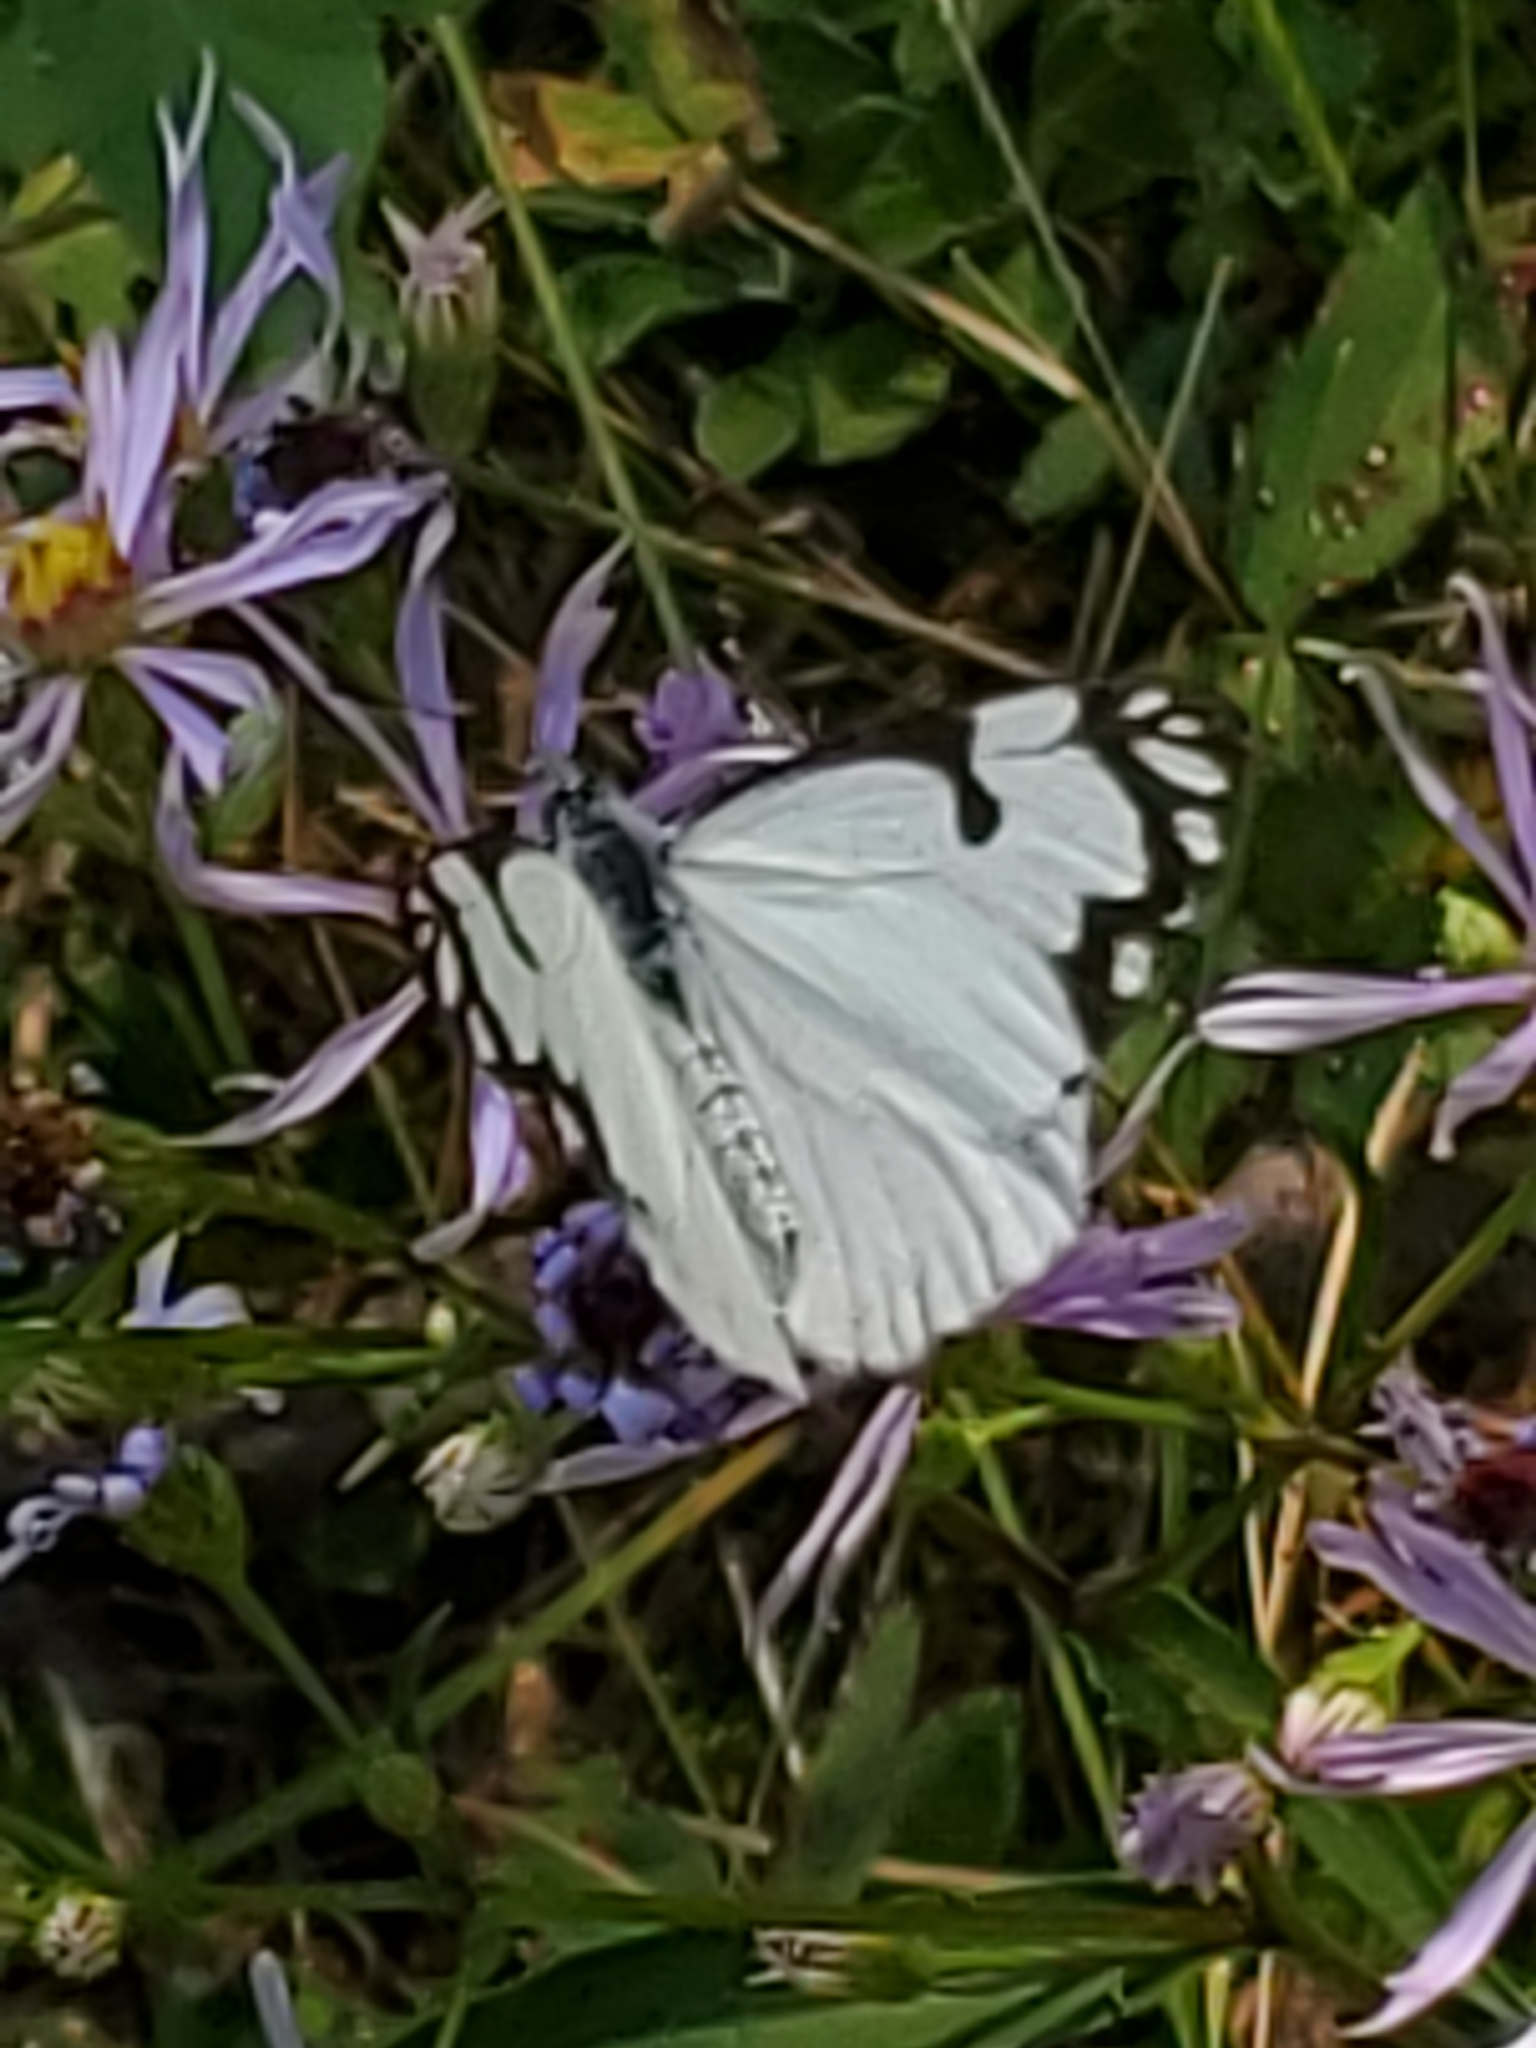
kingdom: Animalia
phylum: Arthropoda
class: Insecta
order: Lepidoptera
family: Pieridae
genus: Neophasia
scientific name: Neophasia menapia
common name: Pine white
